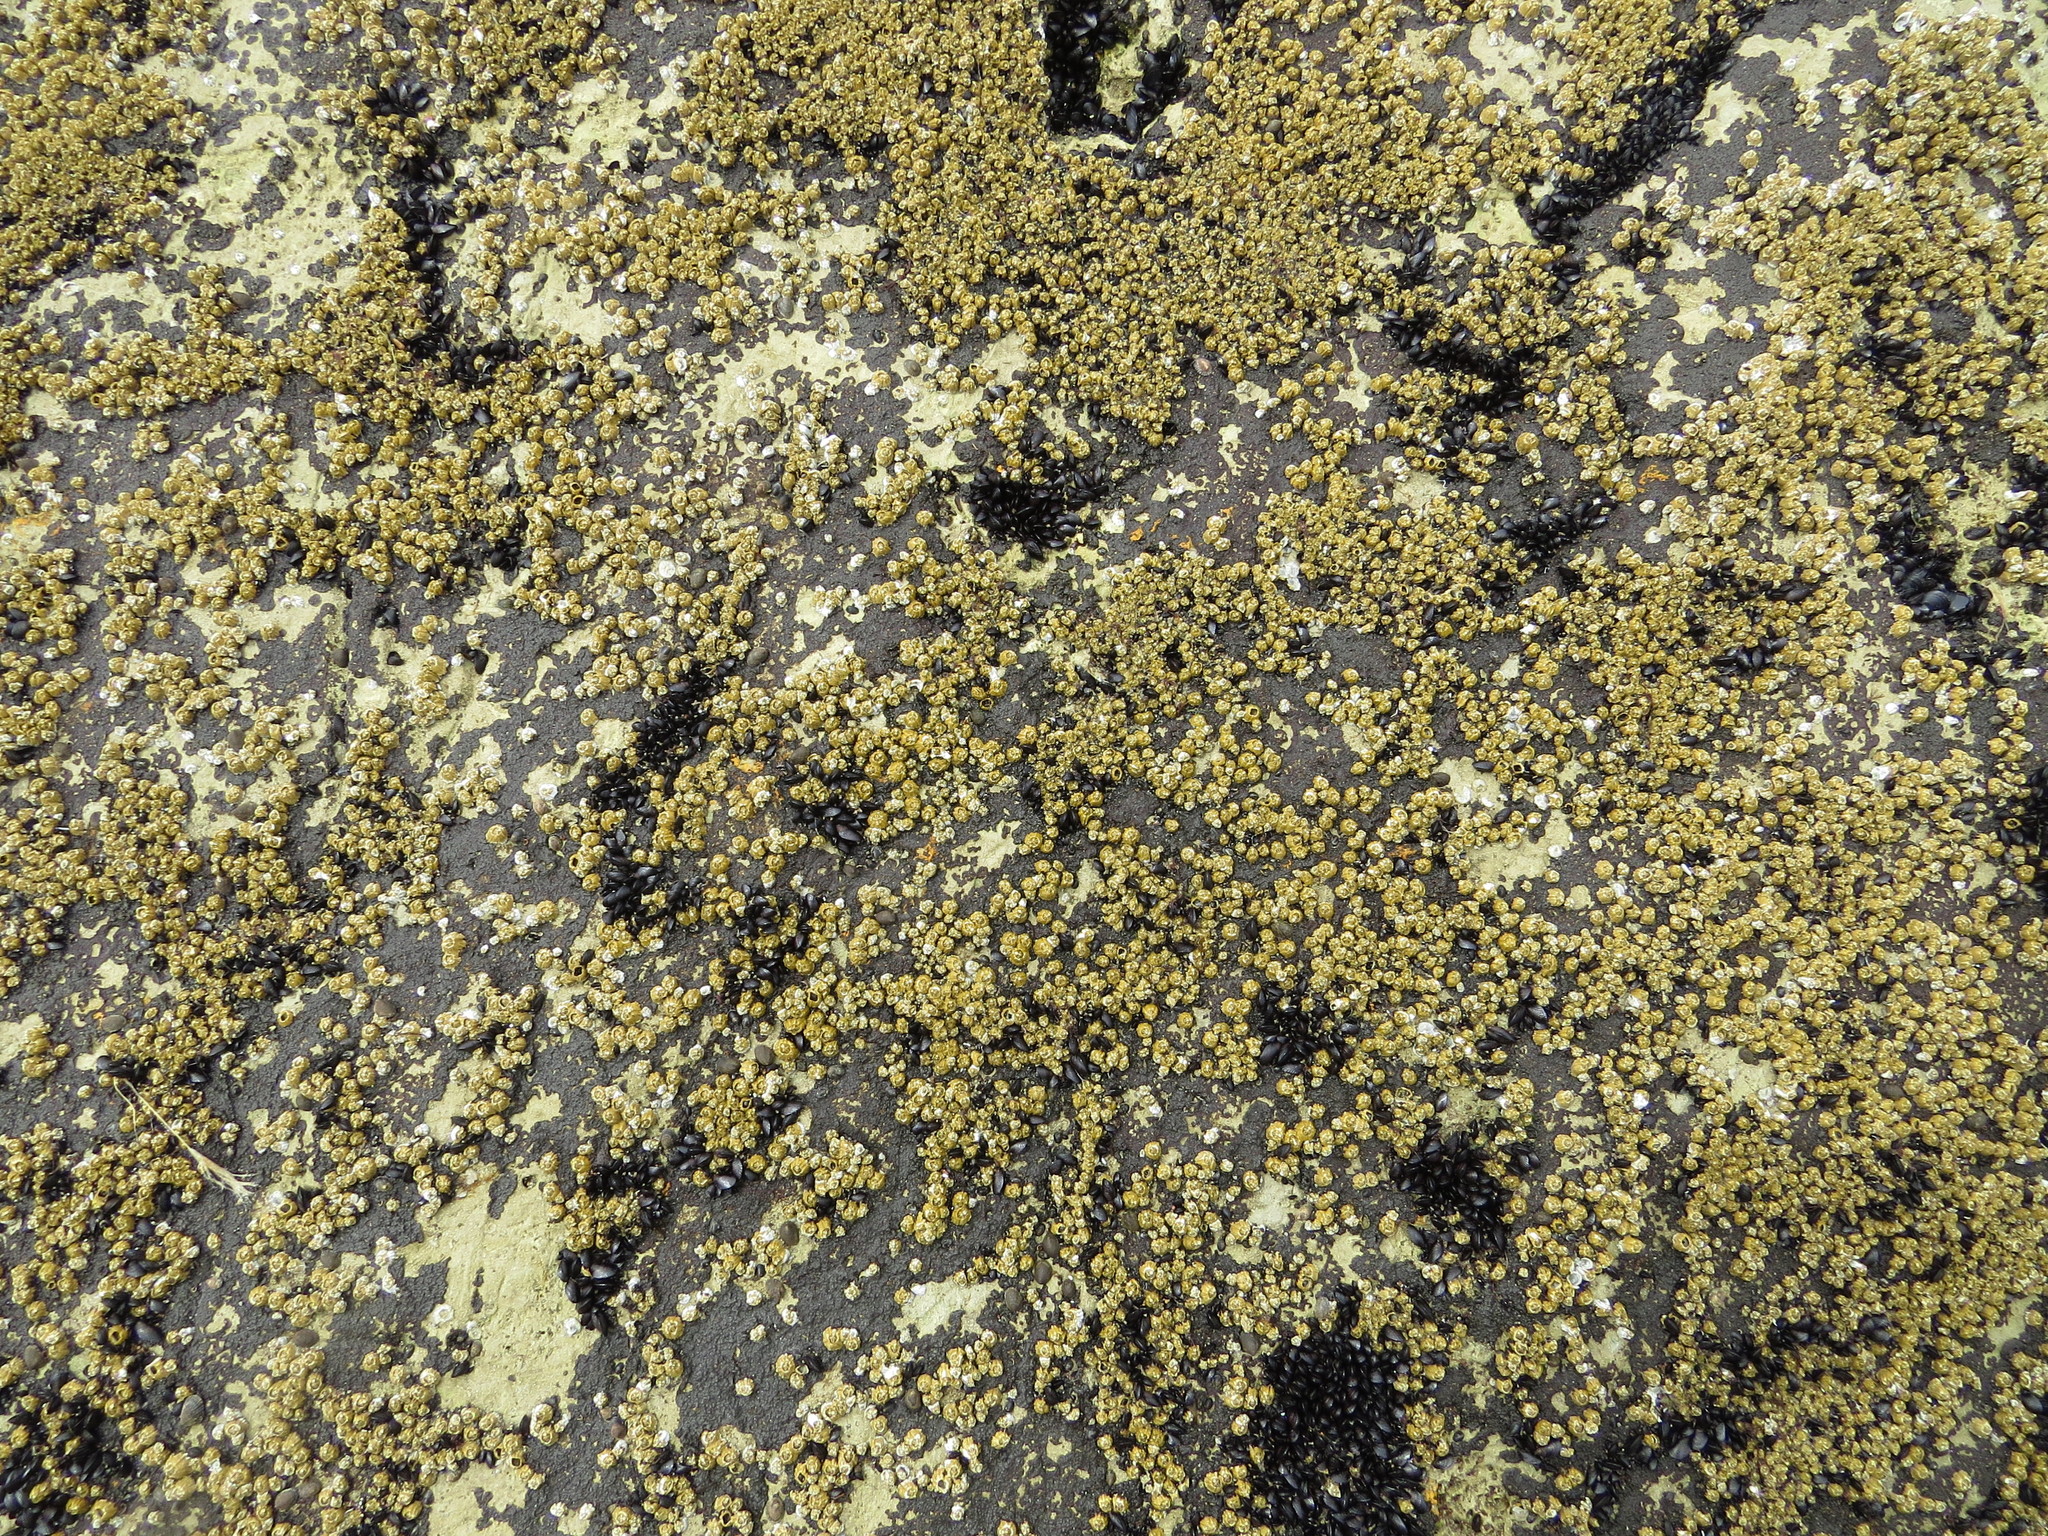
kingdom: Animalia
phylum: Arthropoda
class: Maxillopoda
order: Sessilia
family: Balanidae
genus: Balanus
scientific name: Balanus glandula
